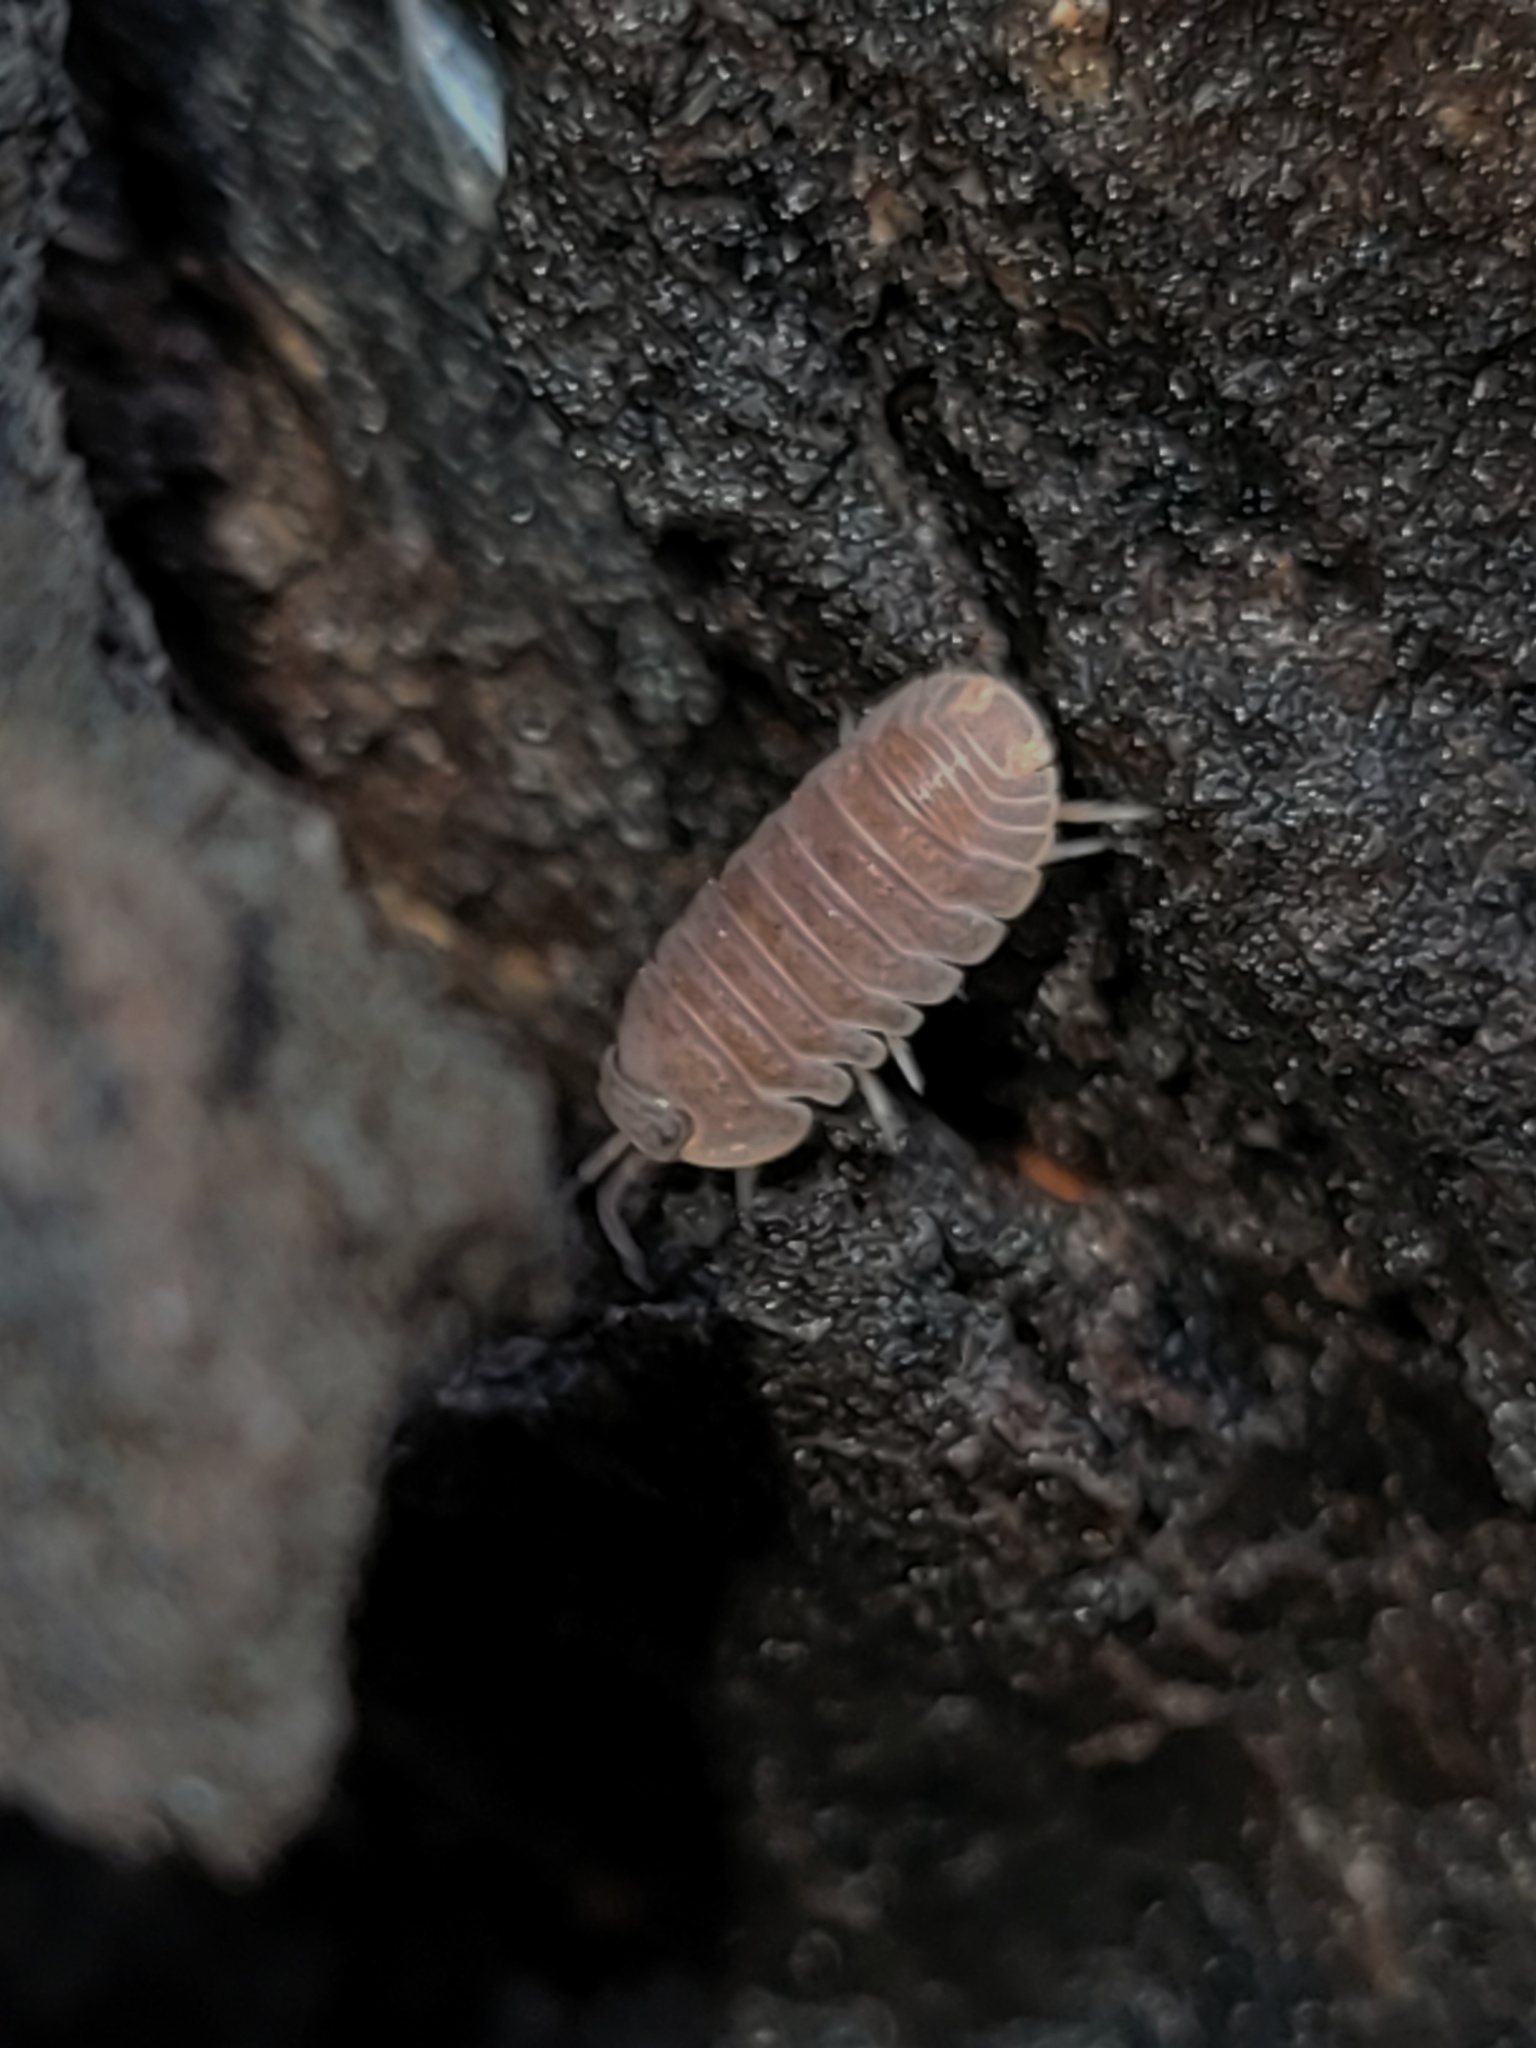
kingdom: Animalia
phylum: Arthropoda
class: Malacostraca
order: Isopoda
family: Armadillidae
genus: Cubaris
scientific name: Cubaris murina
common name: Pillbug
